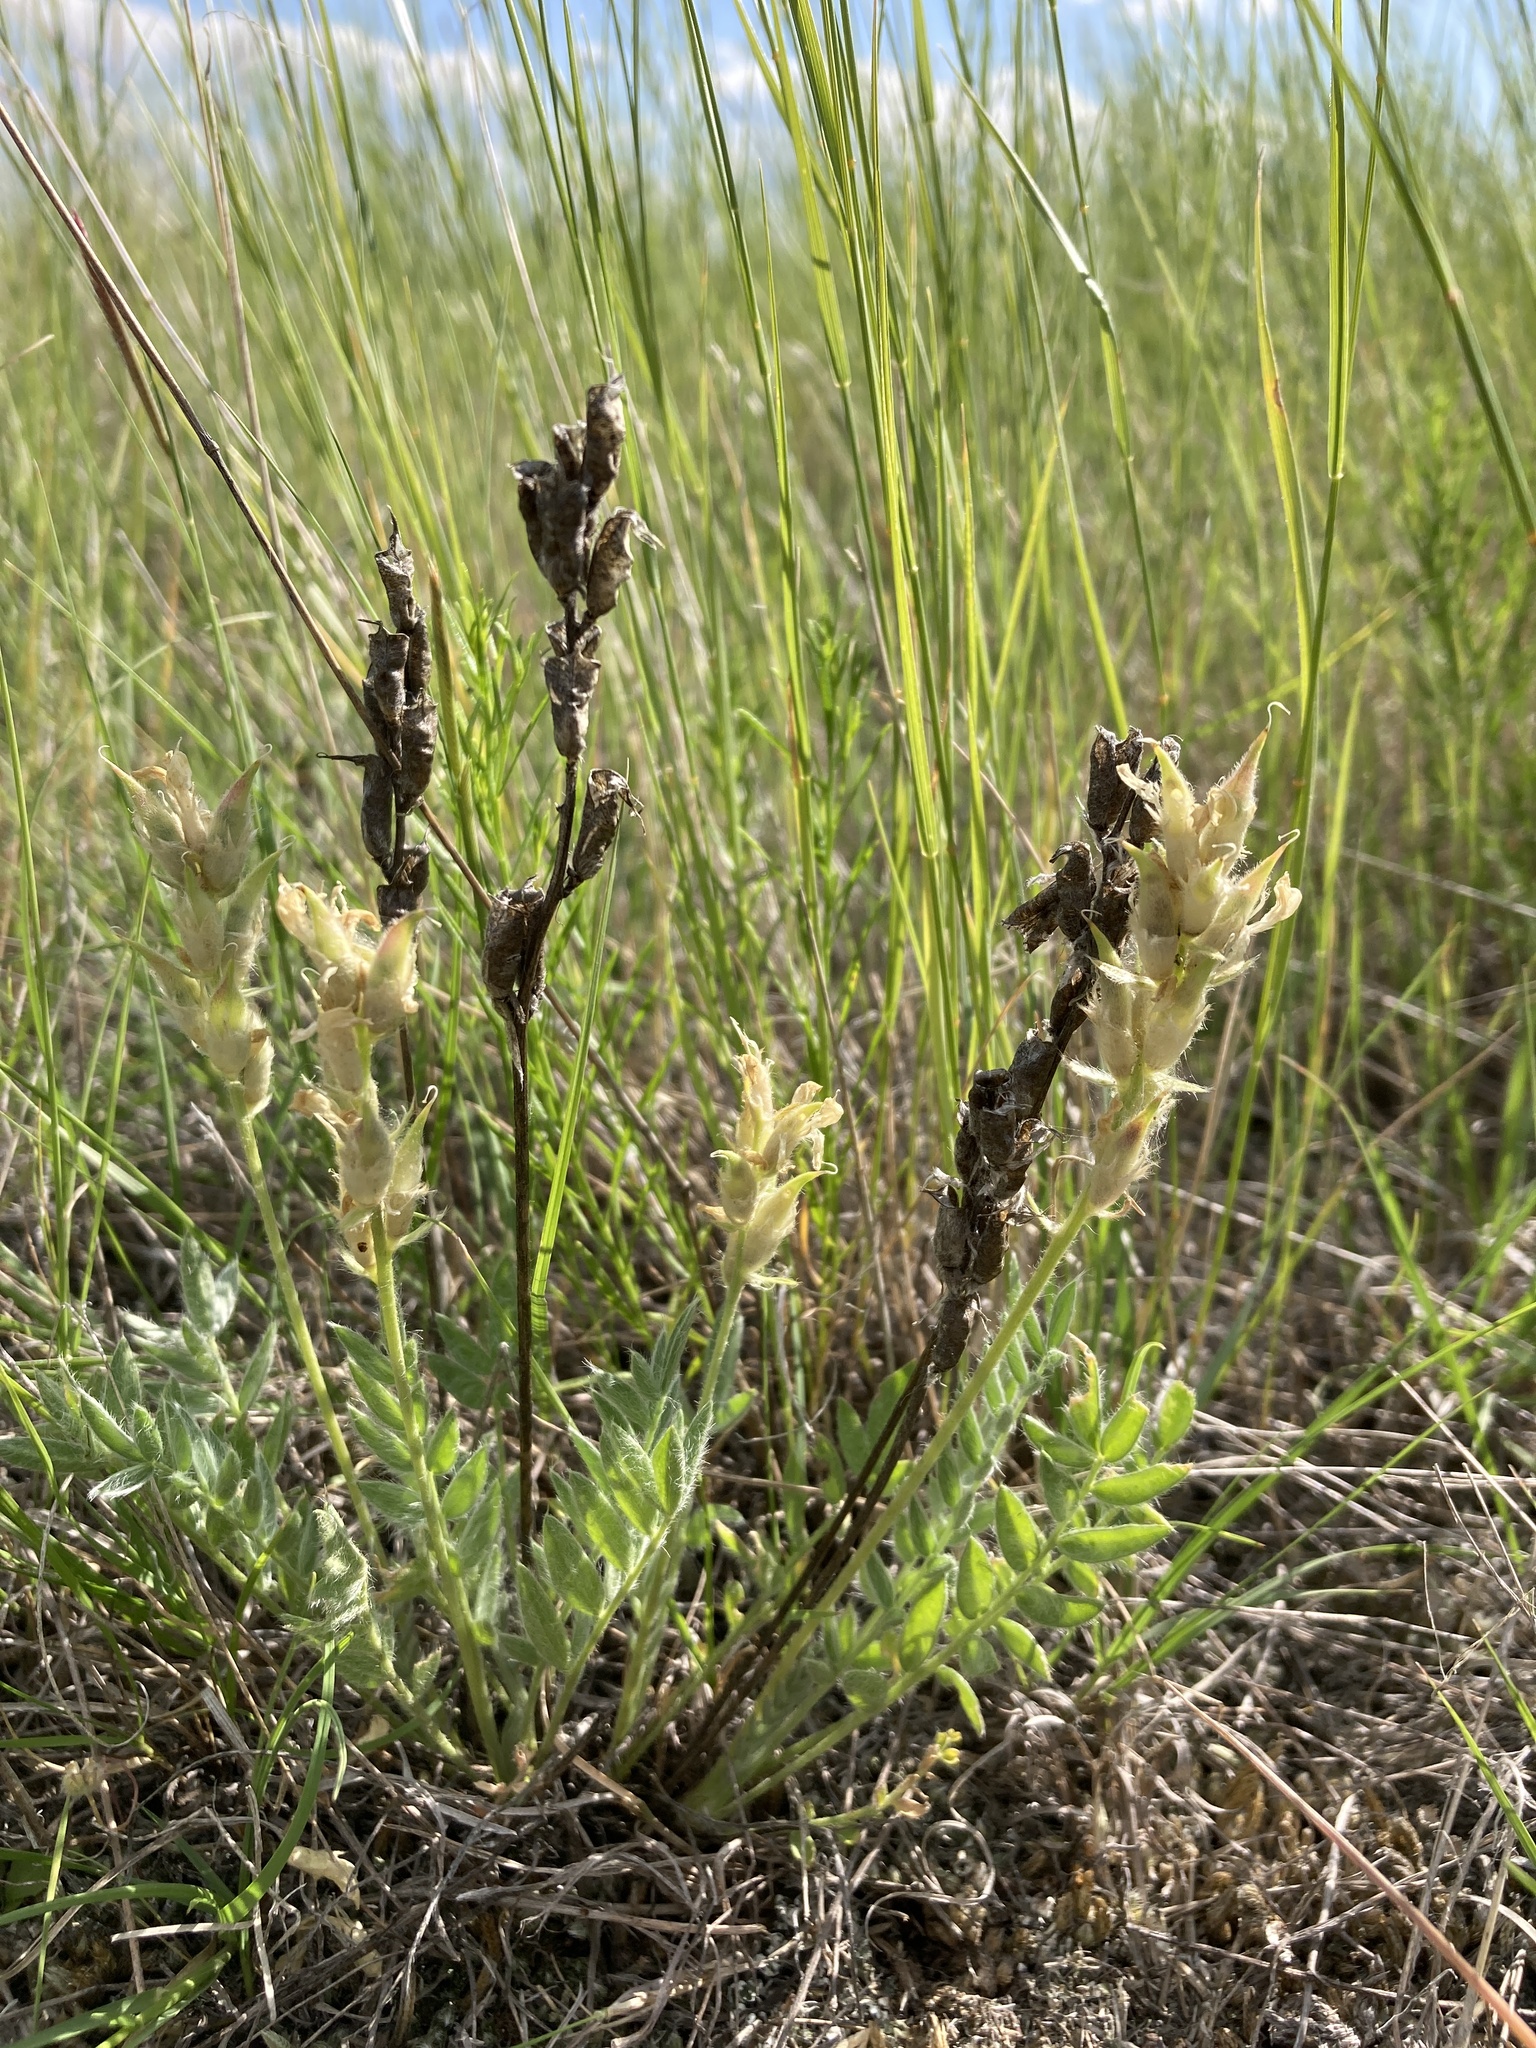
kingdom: Plantae
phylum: Tracheophyta
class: Magnoliopsida
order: Fabales
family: Fabaceae
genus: Oxytropis
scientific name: Oxytropis lambertii
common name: Purple locoweed
